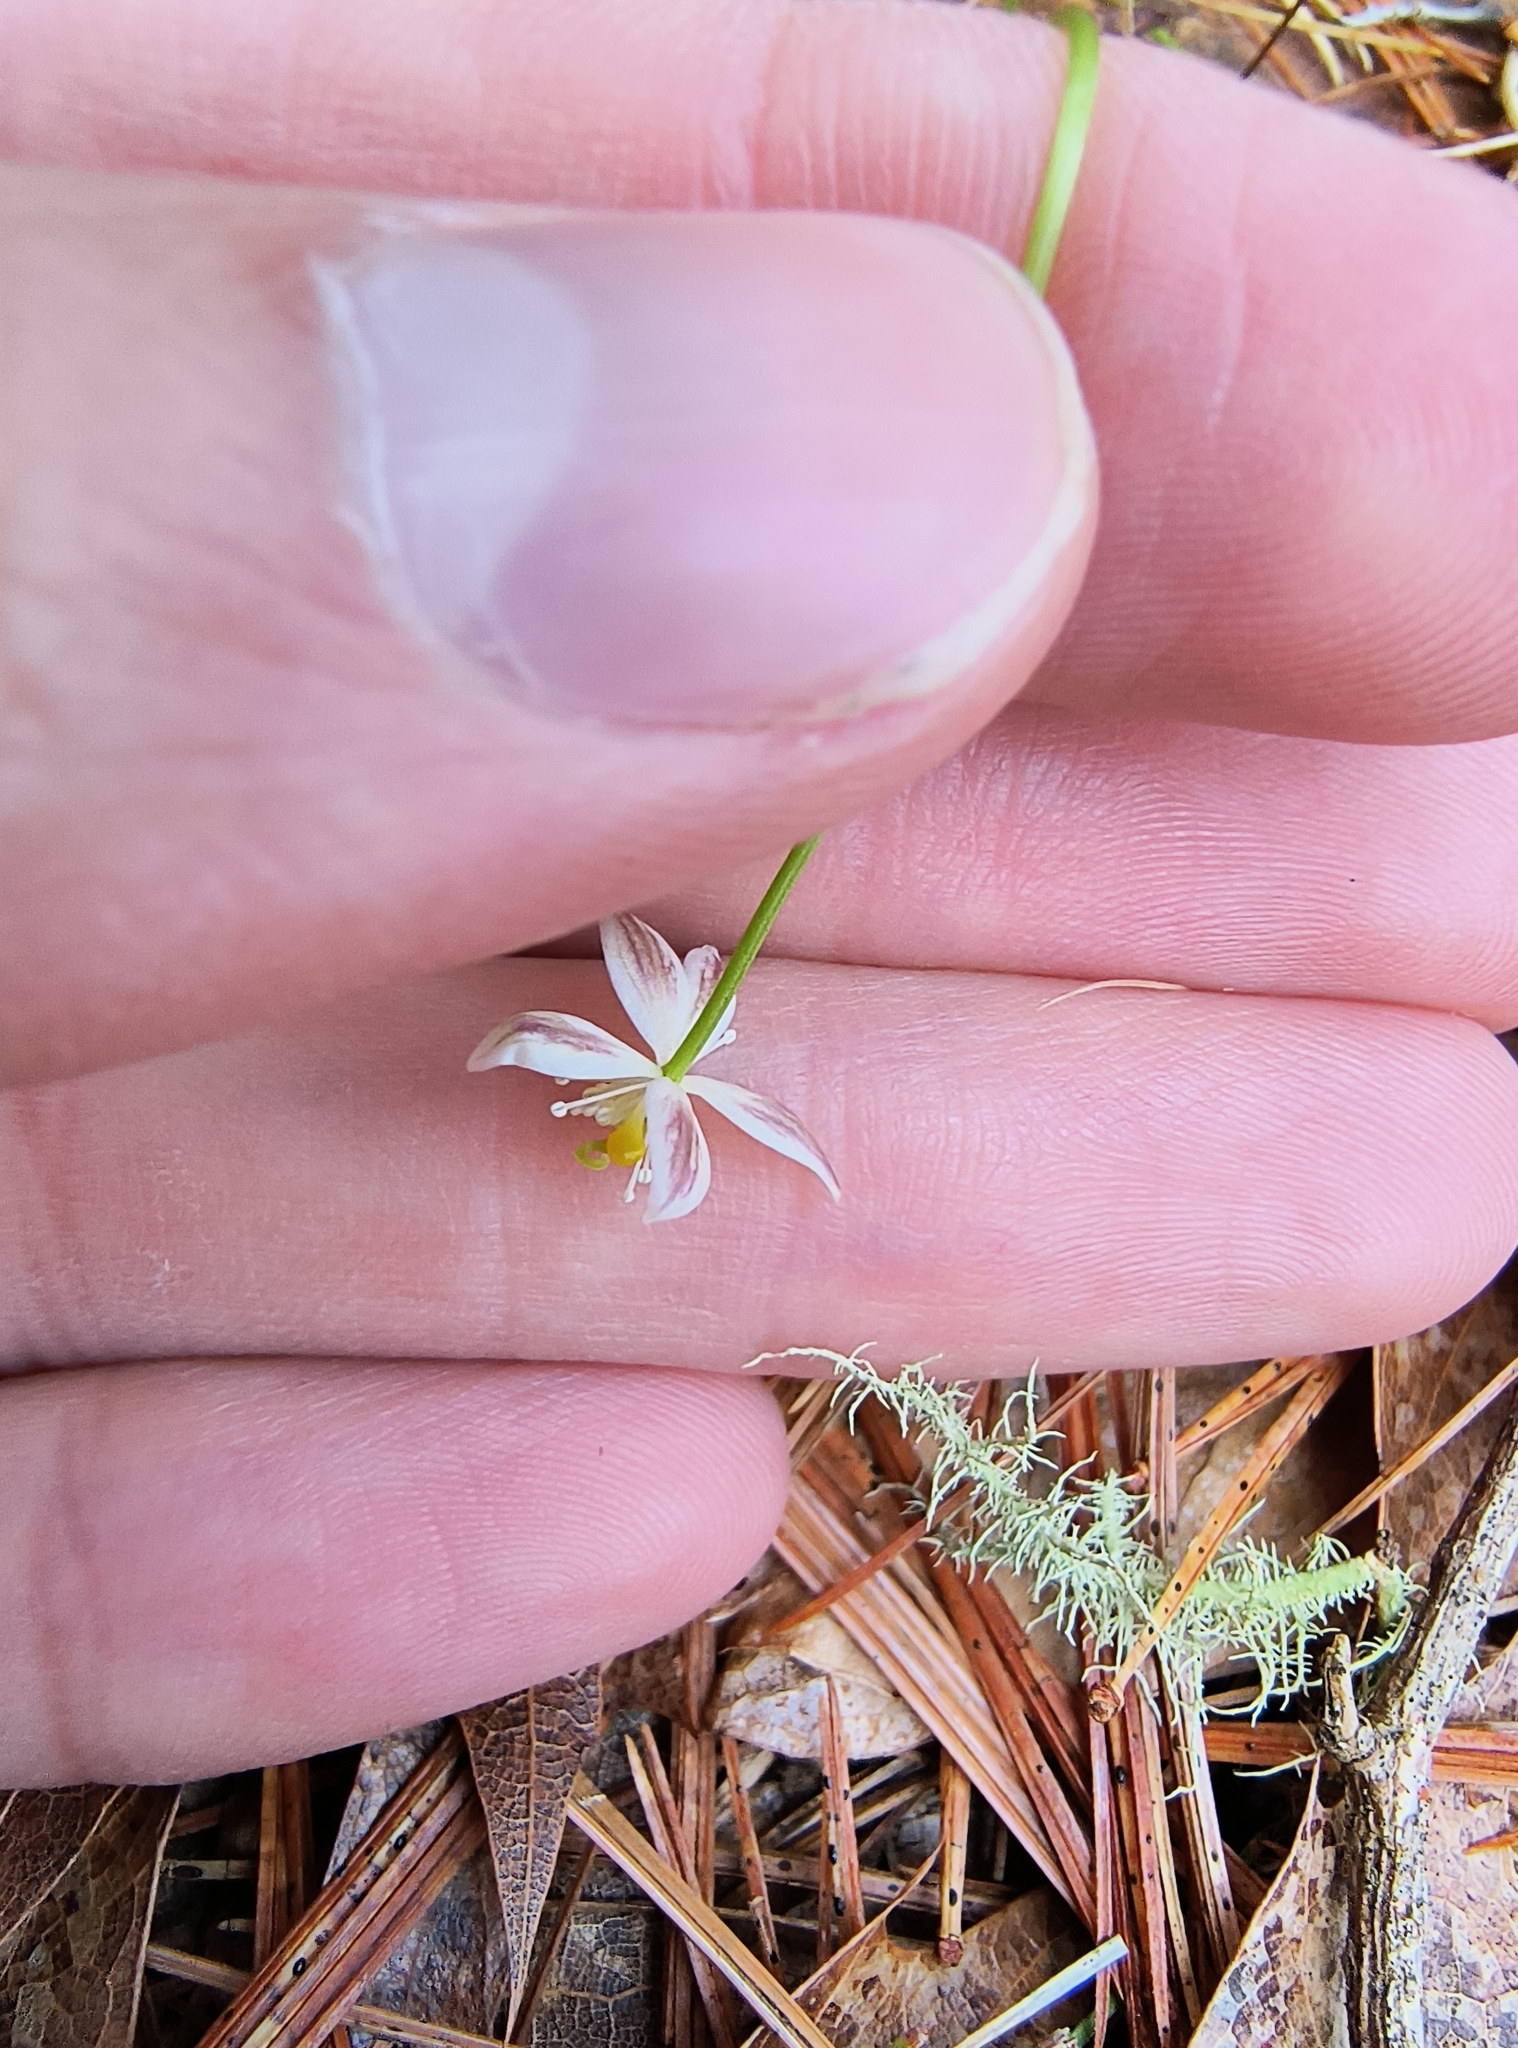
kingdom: Plantae
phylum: Tracheophyta
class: Magnoliopsida
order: Ranunculales
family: Ranunculaceae
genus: Coptis
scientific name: Coptis trifolia
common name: Canker-root
